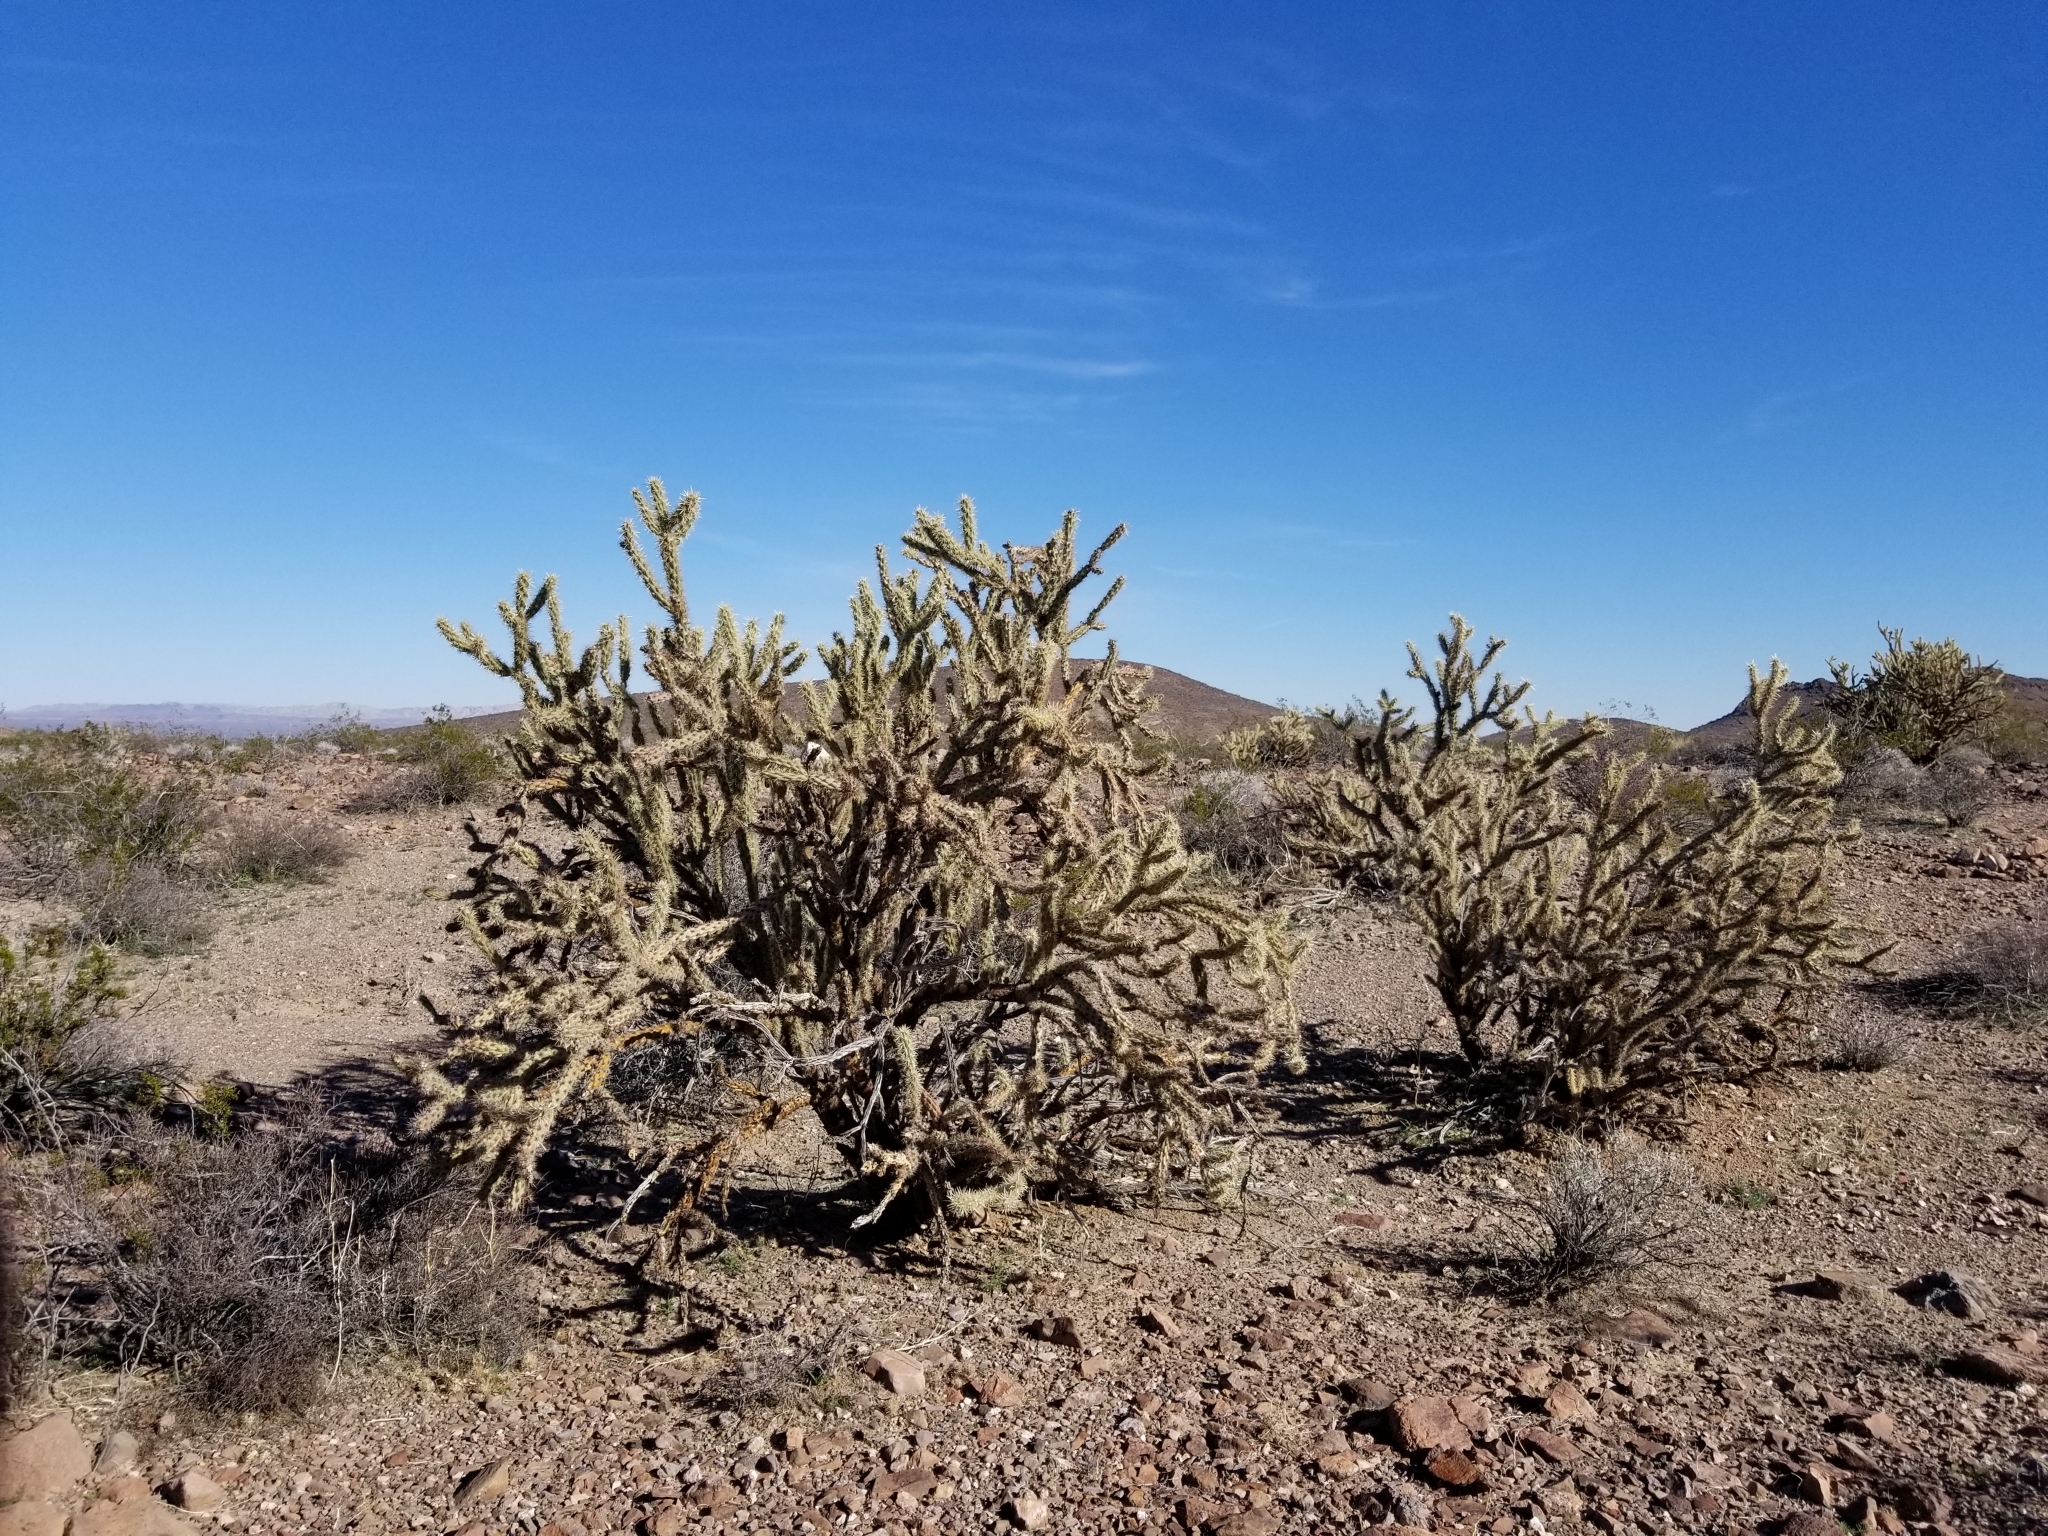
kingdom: Plantae
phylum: Tracheophyta
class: Magnoliopsida
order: Caryophyllales
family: Cactaceae
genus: Cylindropuntia
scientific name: Cylindropuntia acanthocarpa
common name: Buckhorn cholla
